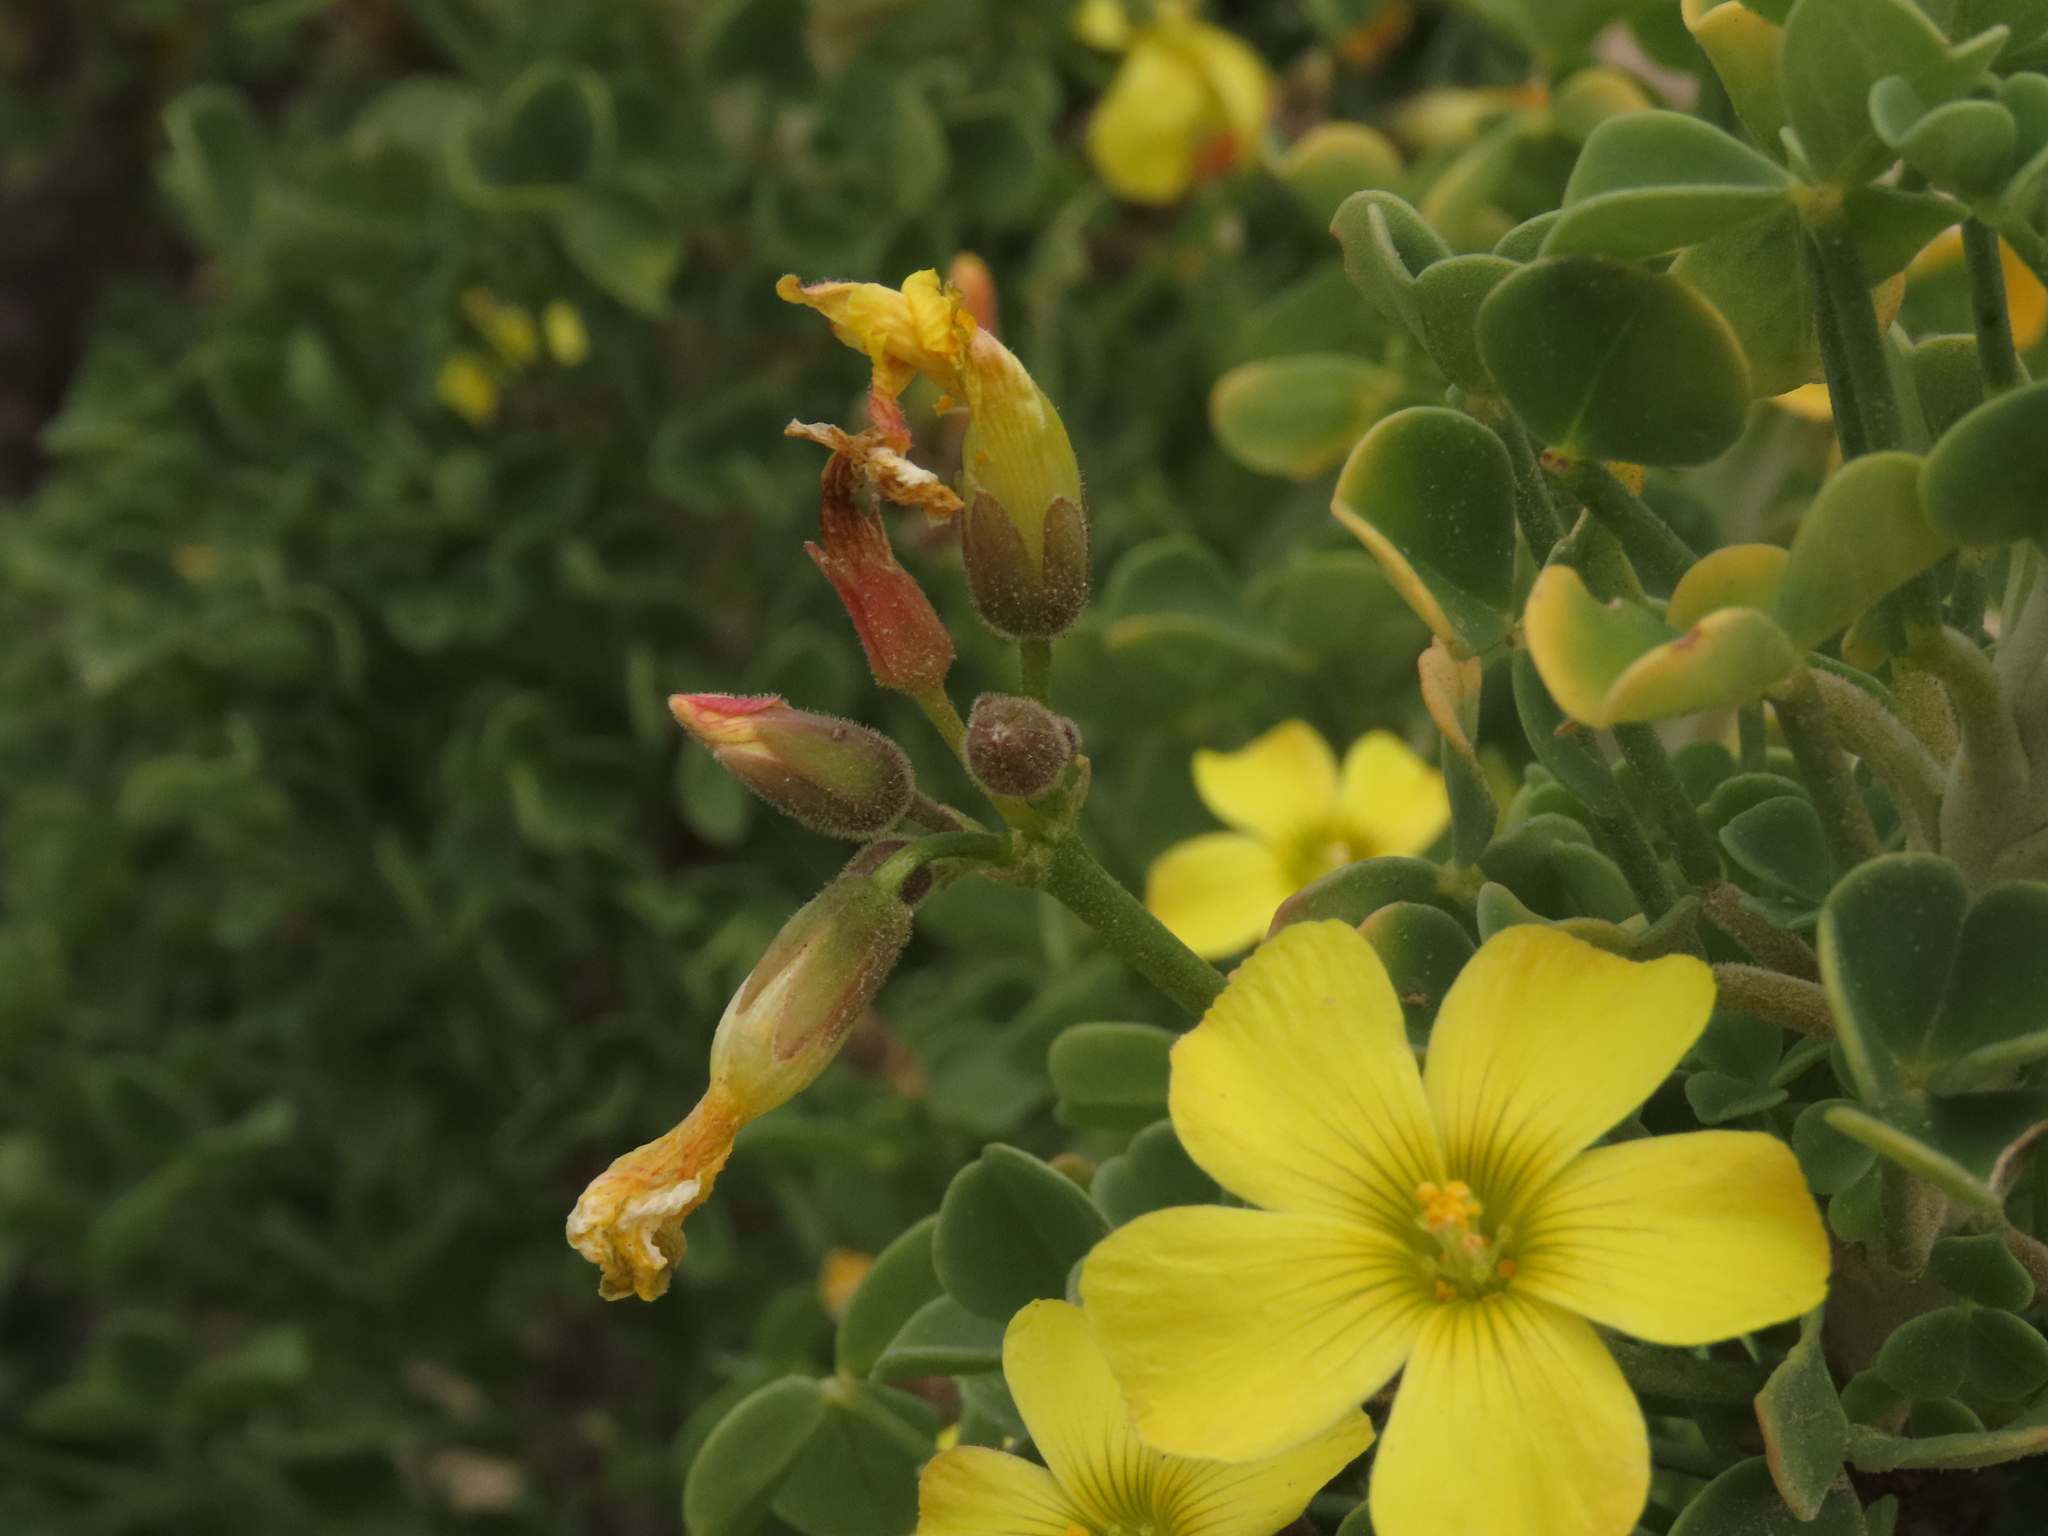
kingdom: Plantae
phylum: Tracheophyta
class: Magnoliopsida
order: Oxalidales
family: Oxalidaceae
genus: Oxalis
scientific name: Oxalis virgosa
